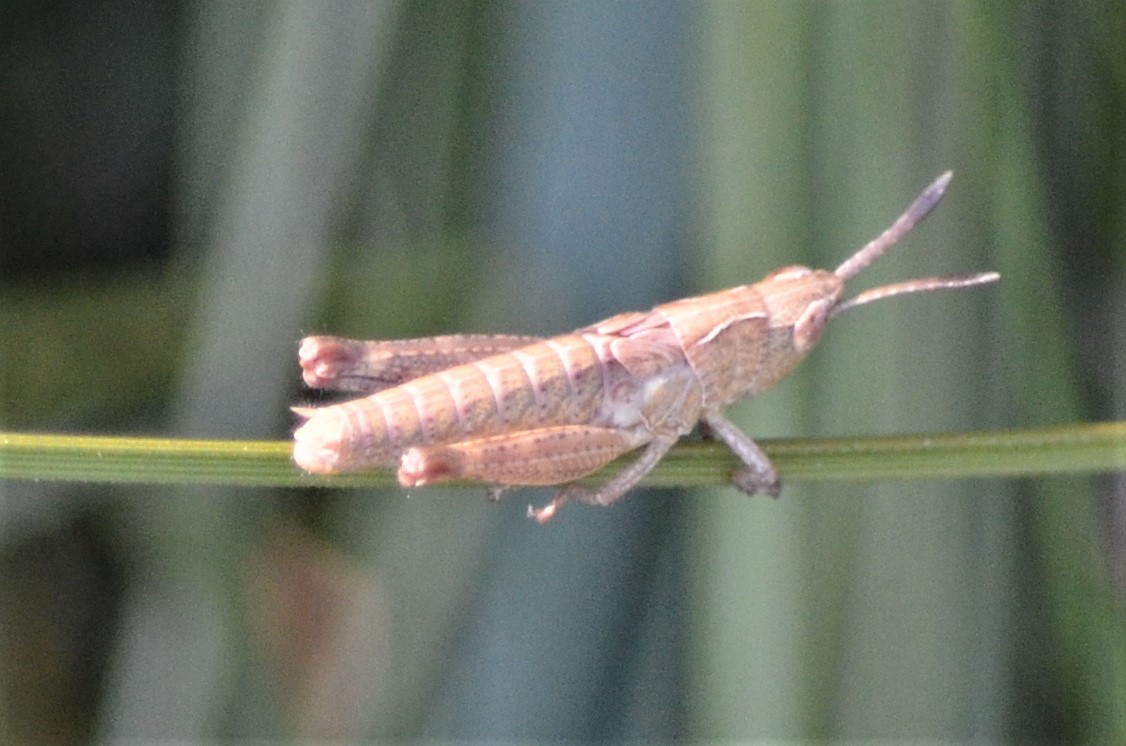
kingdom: Animalia
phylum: Arthropoda
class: Insecta
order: Orthoptera
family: Acrididae
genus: Gomphocerippus
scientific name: Gomphocerippus rufus
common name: Rufous grasshopper
